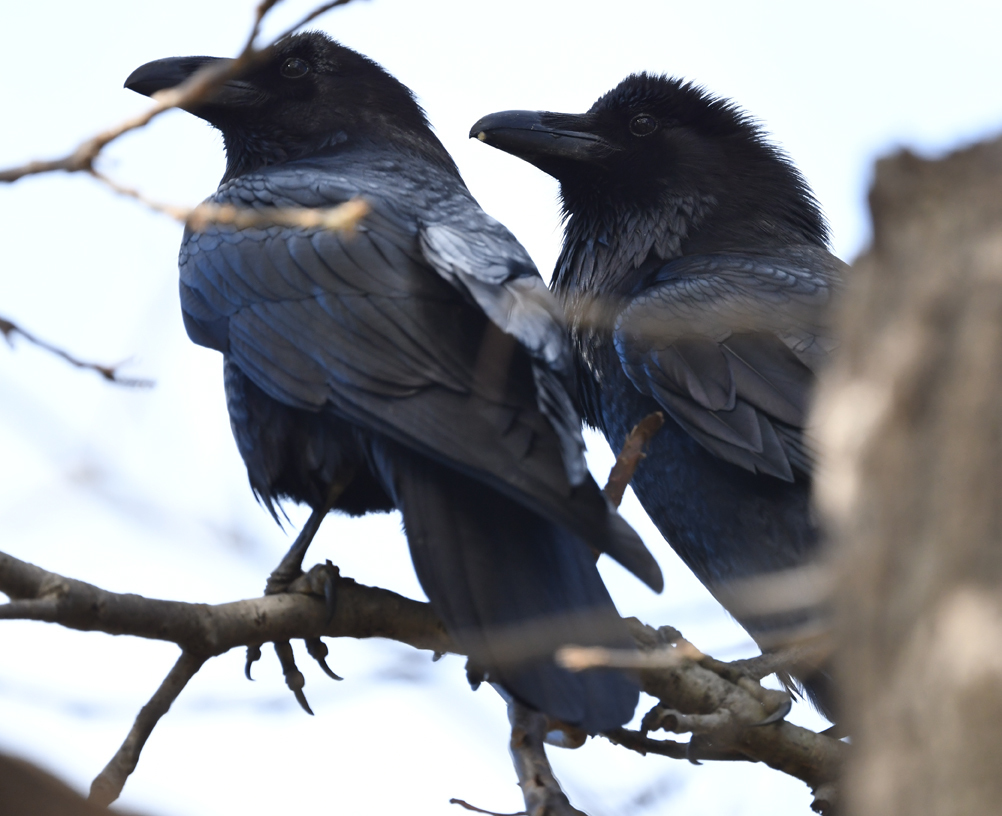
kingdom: Animalia
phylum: Chordata
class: Aves
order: Passeriformes
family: Corvidae
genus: Corvus
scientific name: Corvus corax
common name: Common raven
